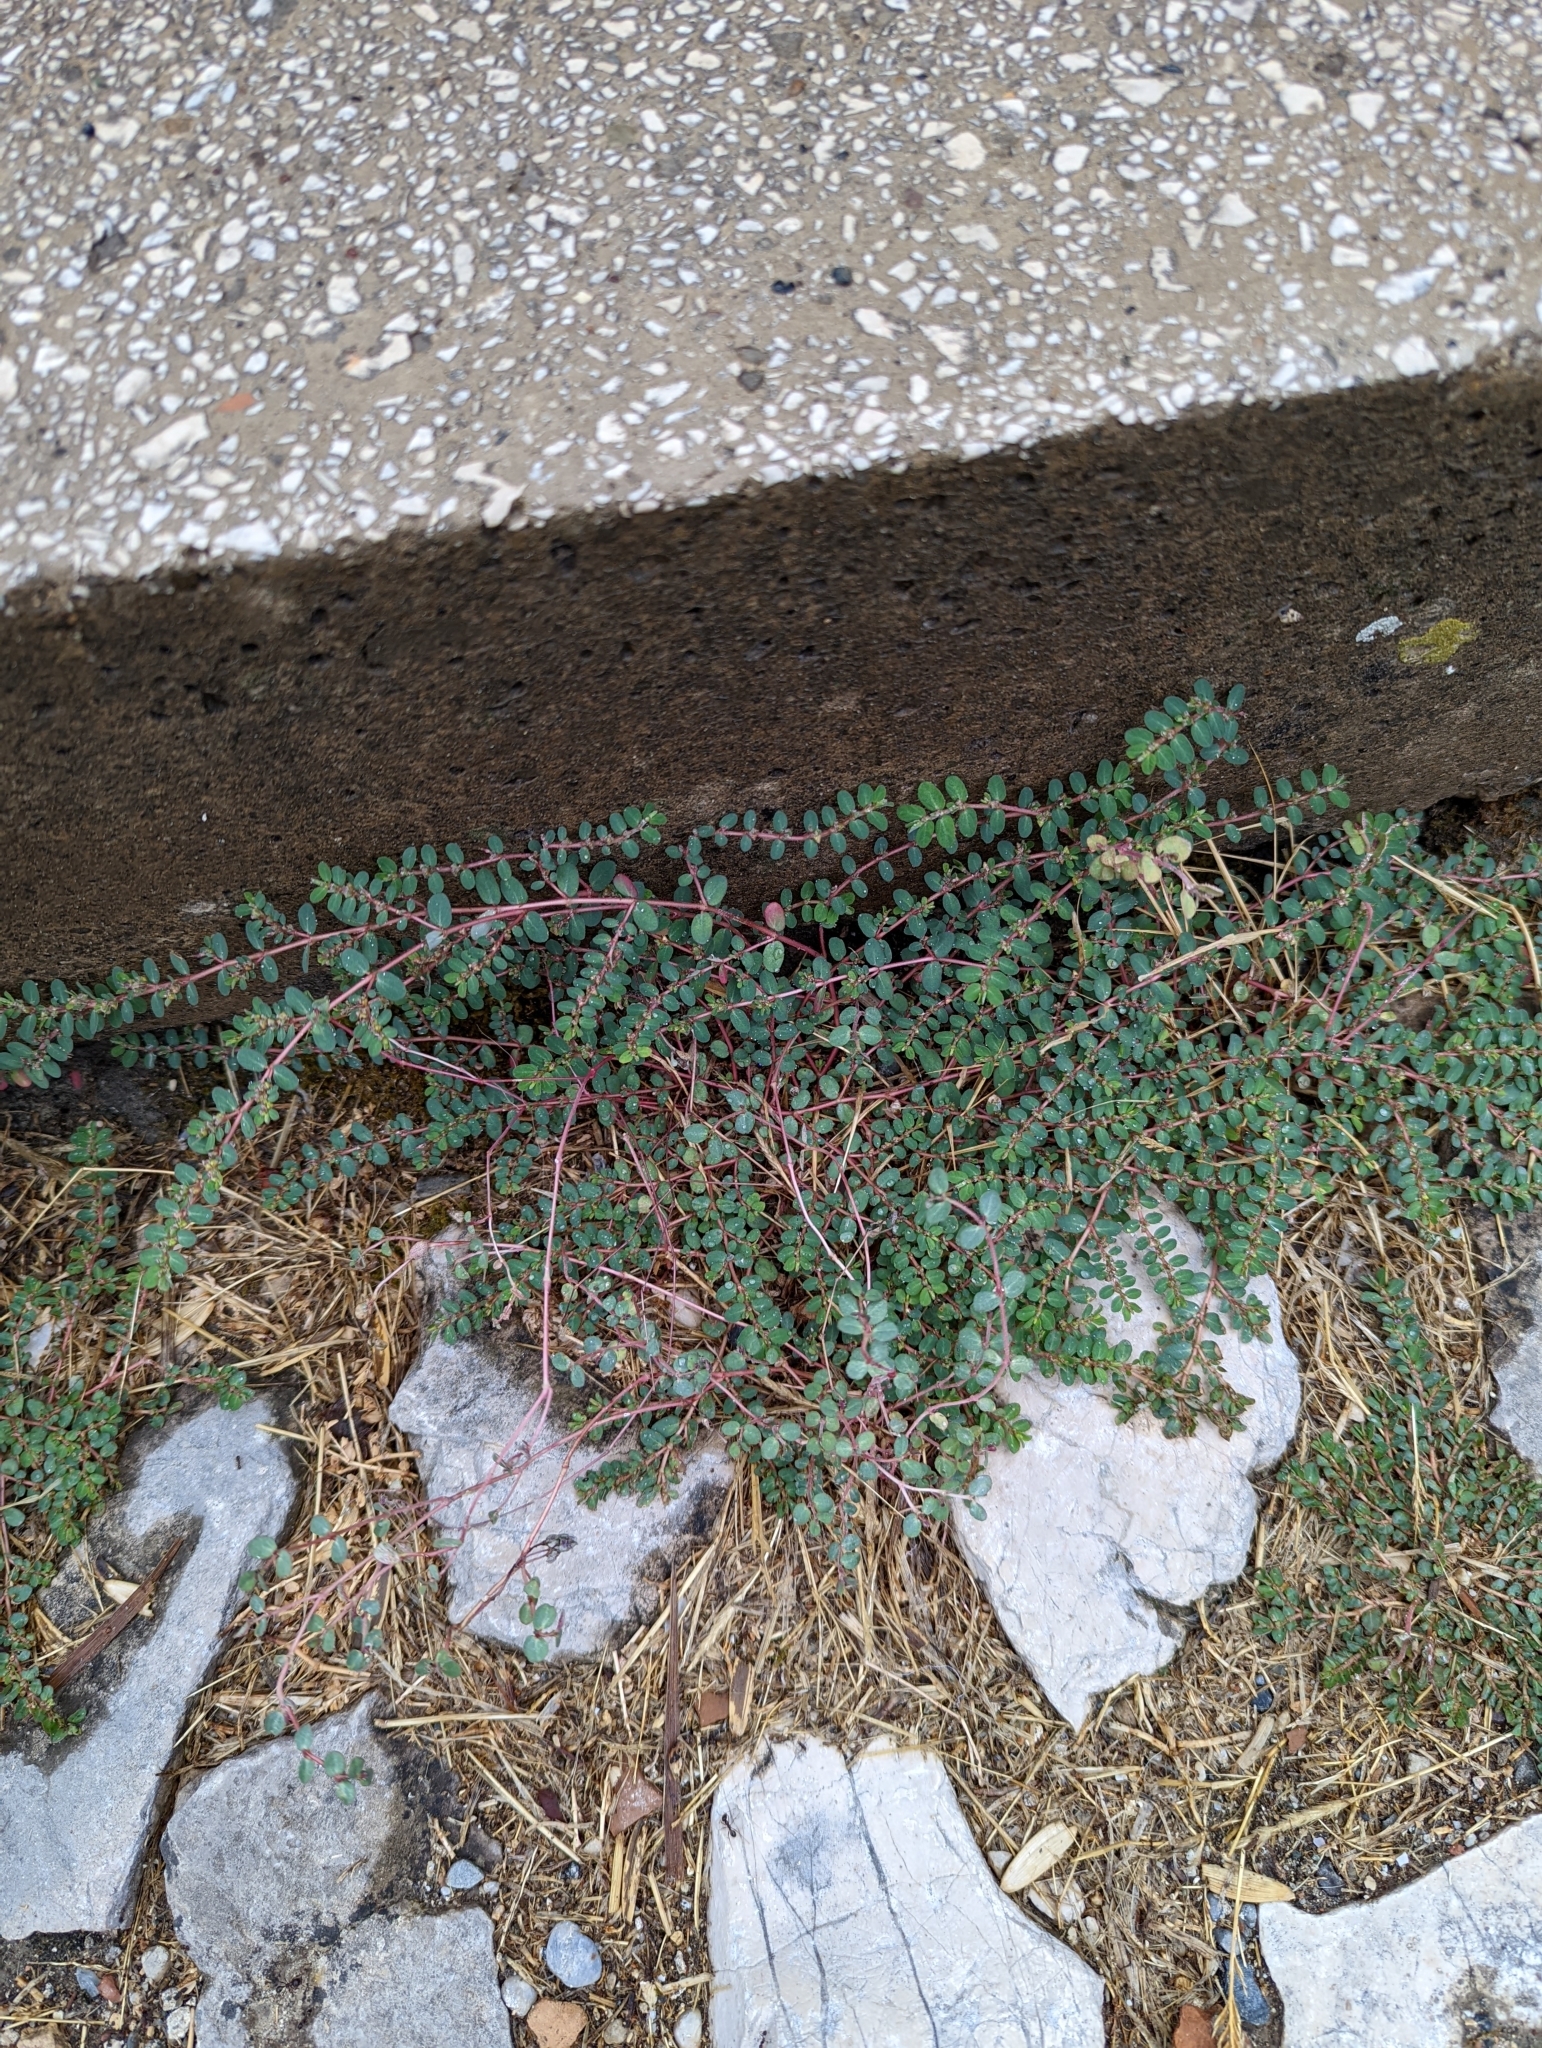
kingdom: Plantae
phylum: Tracheophyta
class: Magnoliopsida
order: Malpighiales
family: Euphorbiaceae
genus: Euphorbia
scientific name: Euphorbia prostrata
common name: Prostrate sandmat
